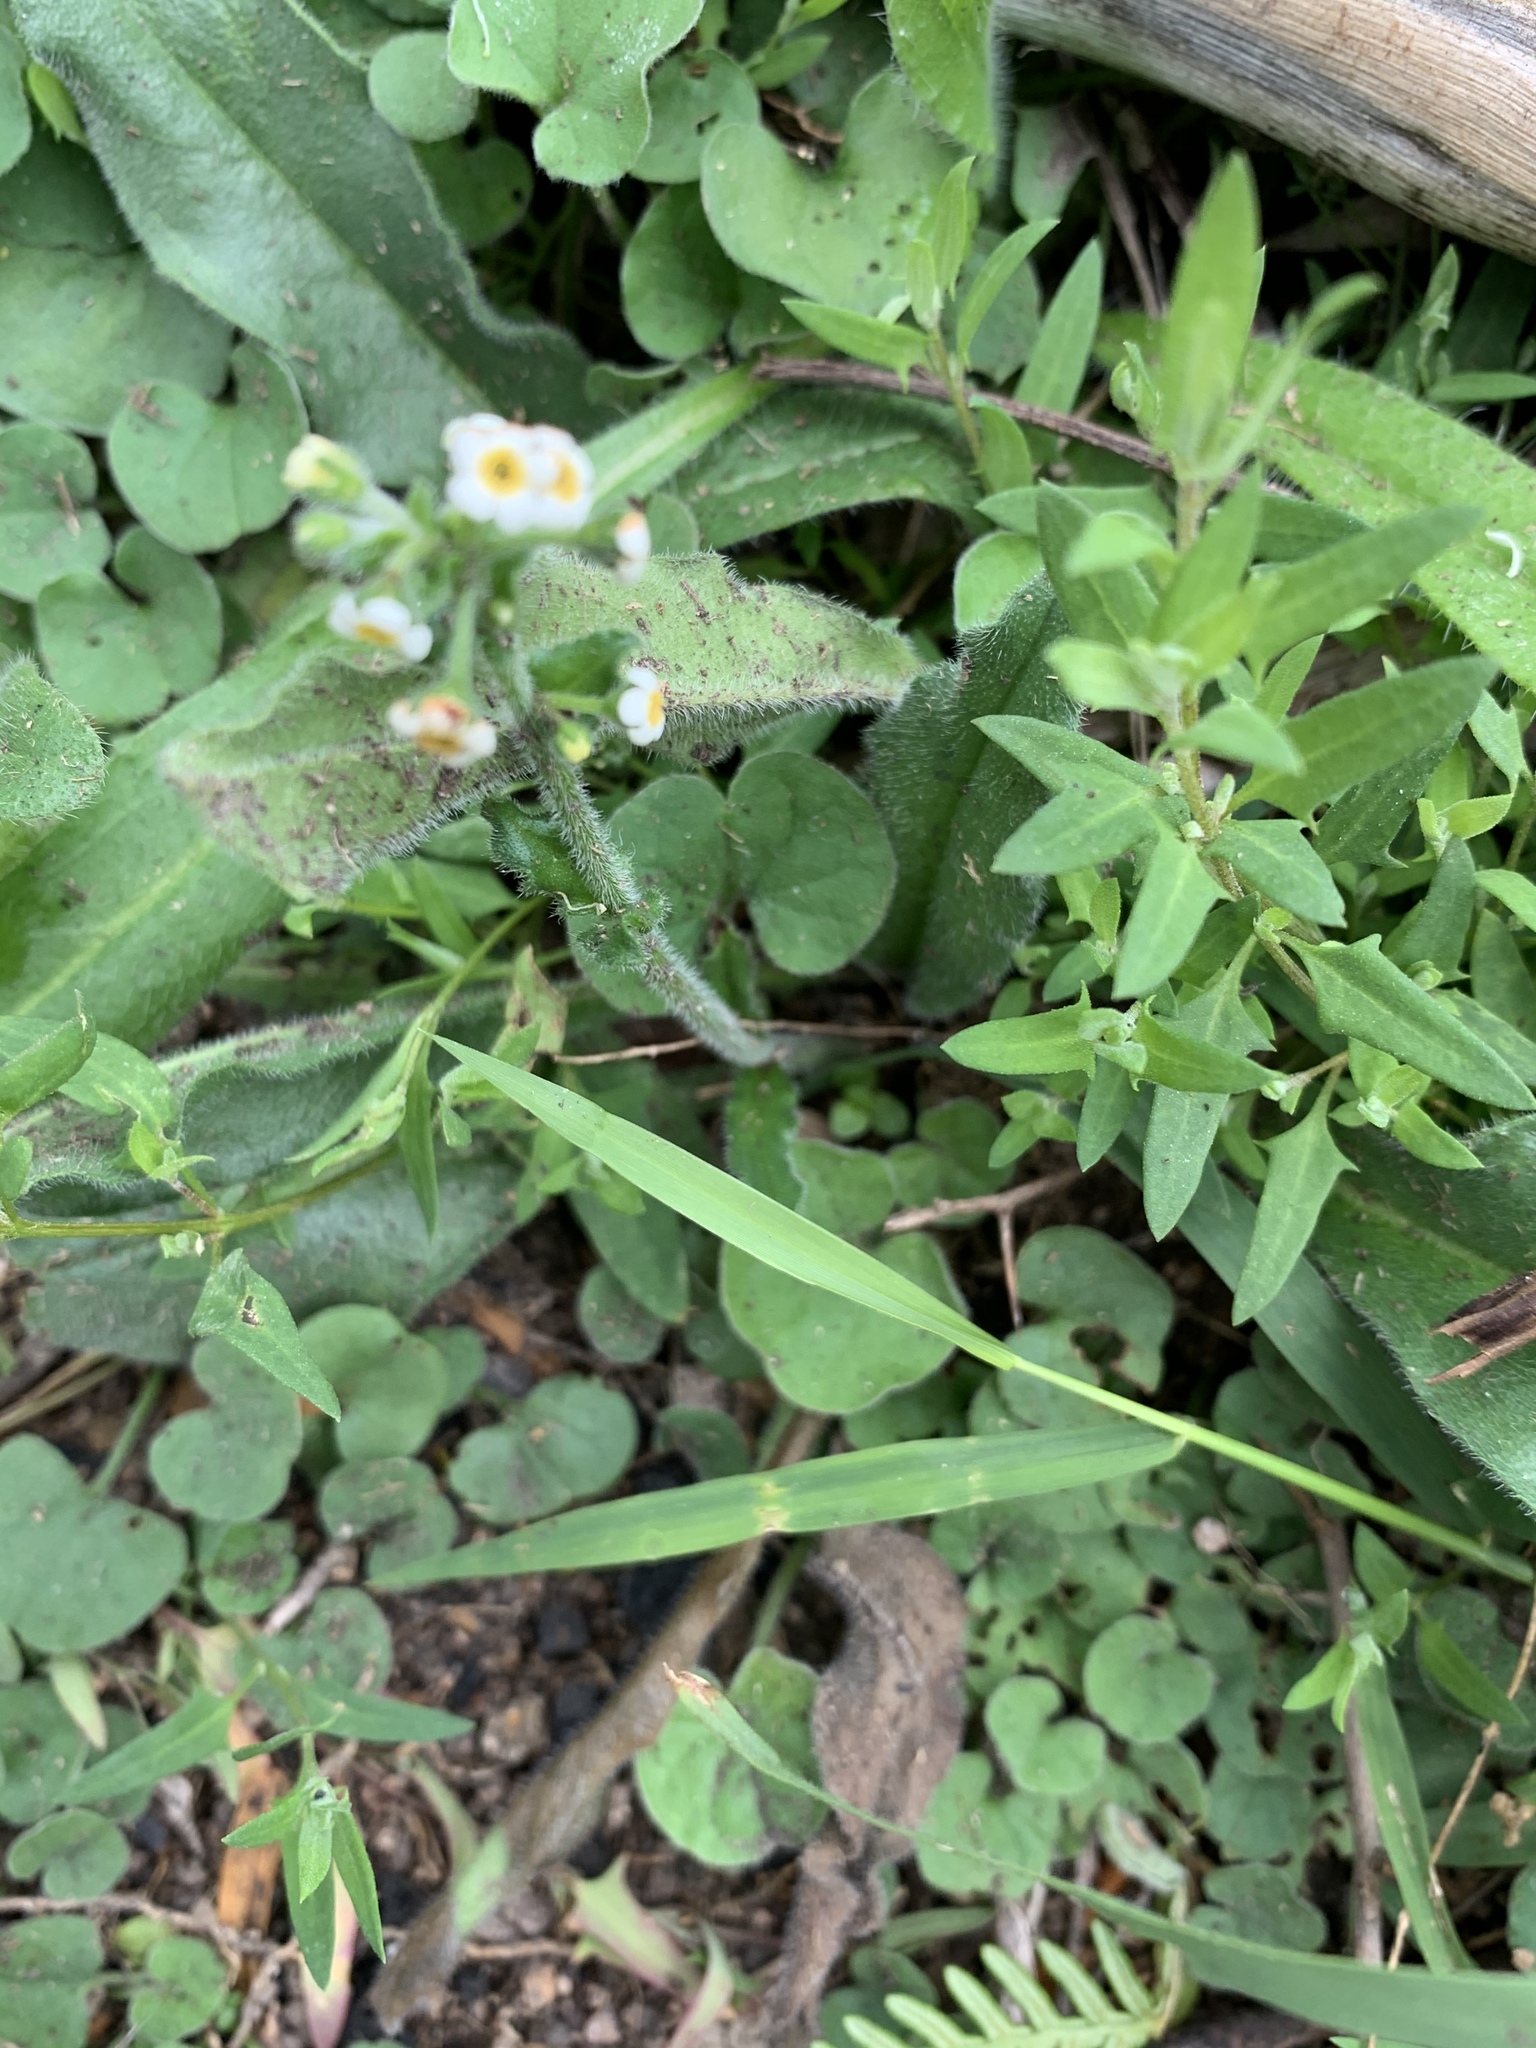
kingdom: Plantae
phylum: Tracheophyta
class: Magnoliopsida
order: Boraginales
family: Boraginaceae
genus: Hackelia
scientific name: Hackelia suaveolens
